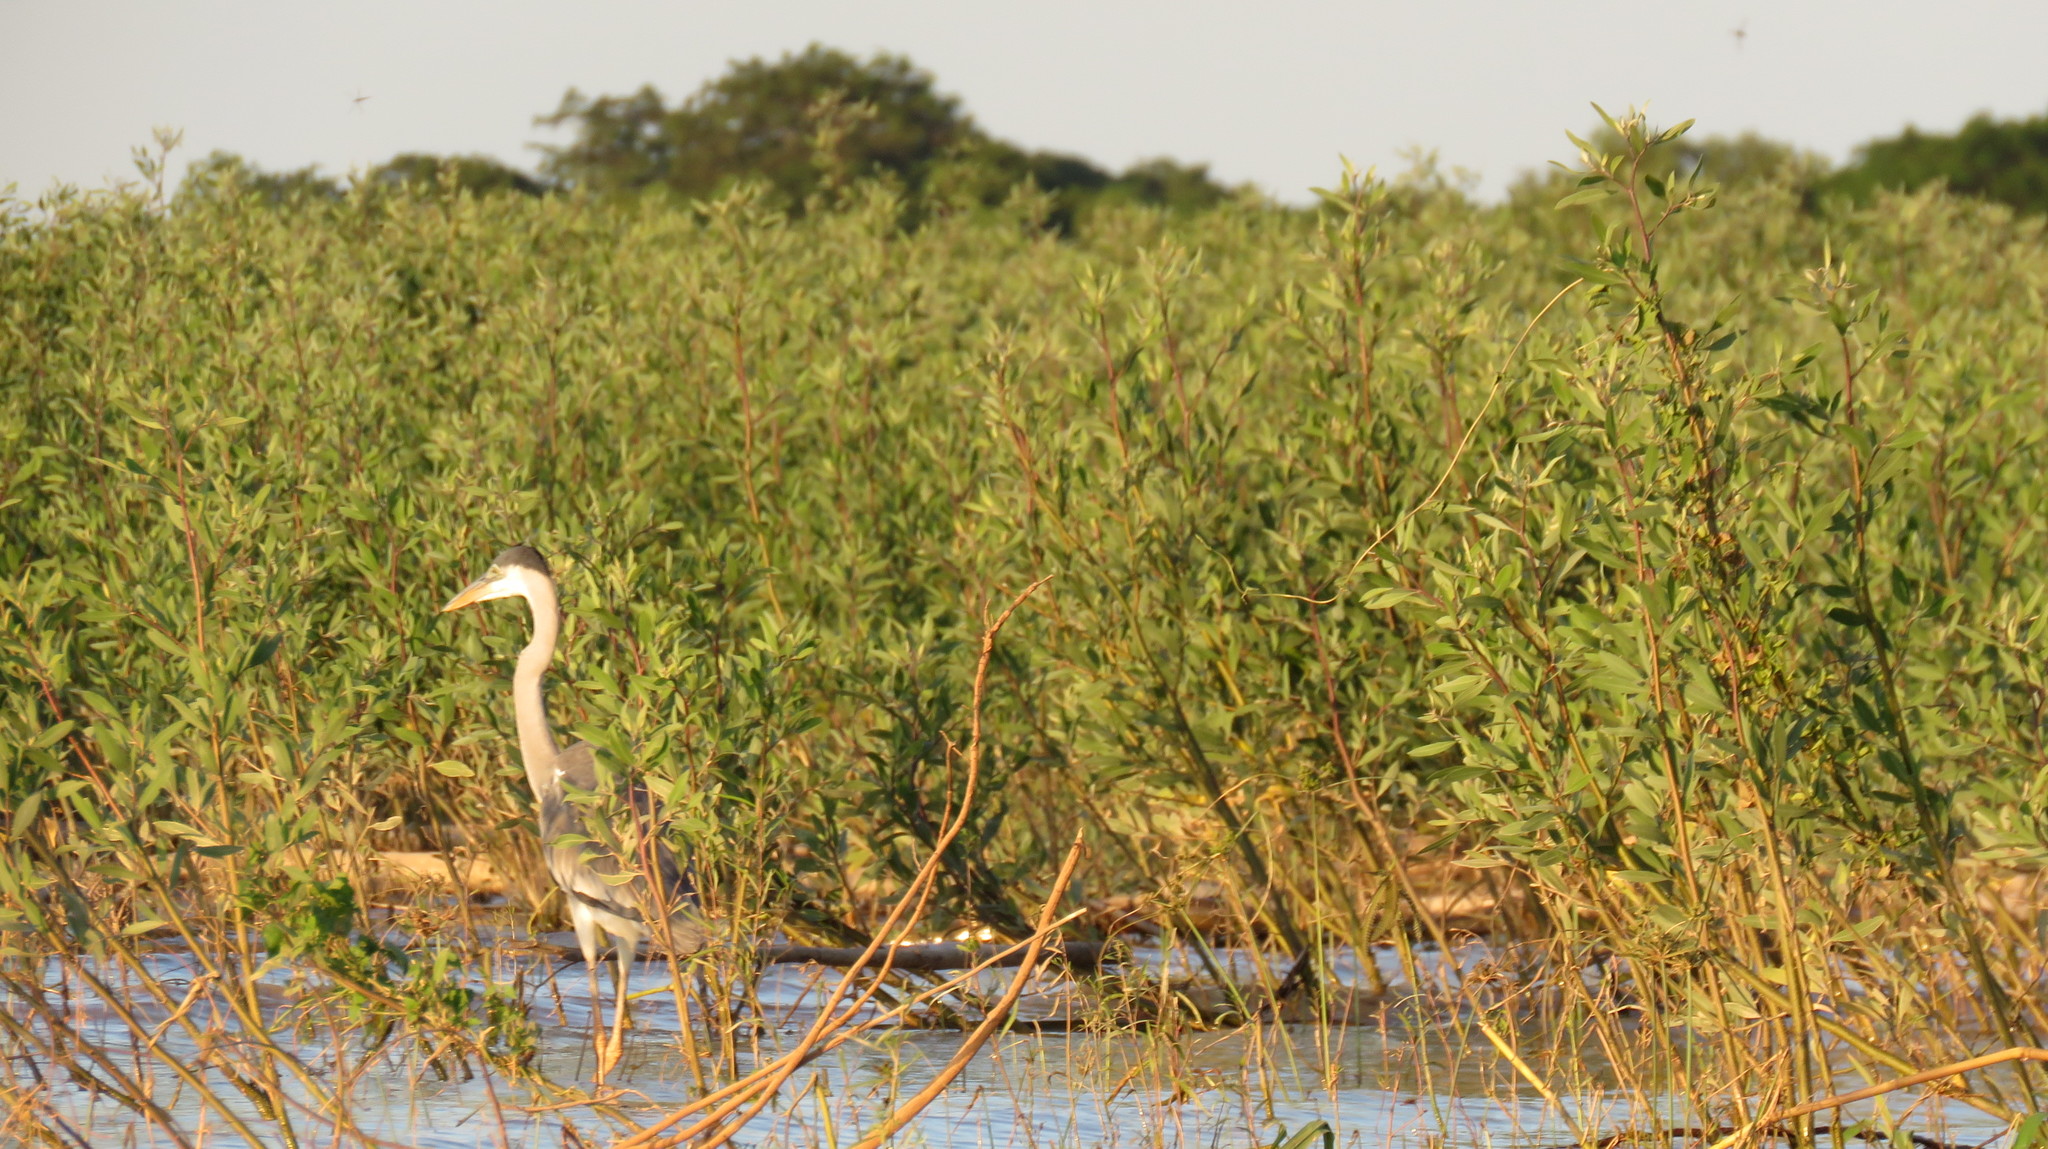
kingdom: Animalia
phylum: Chordata
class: Aves
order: Pelecaniformes
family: Ardeidae
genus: Ardea
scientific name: Ardea cocoi
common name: Cocoi heron
